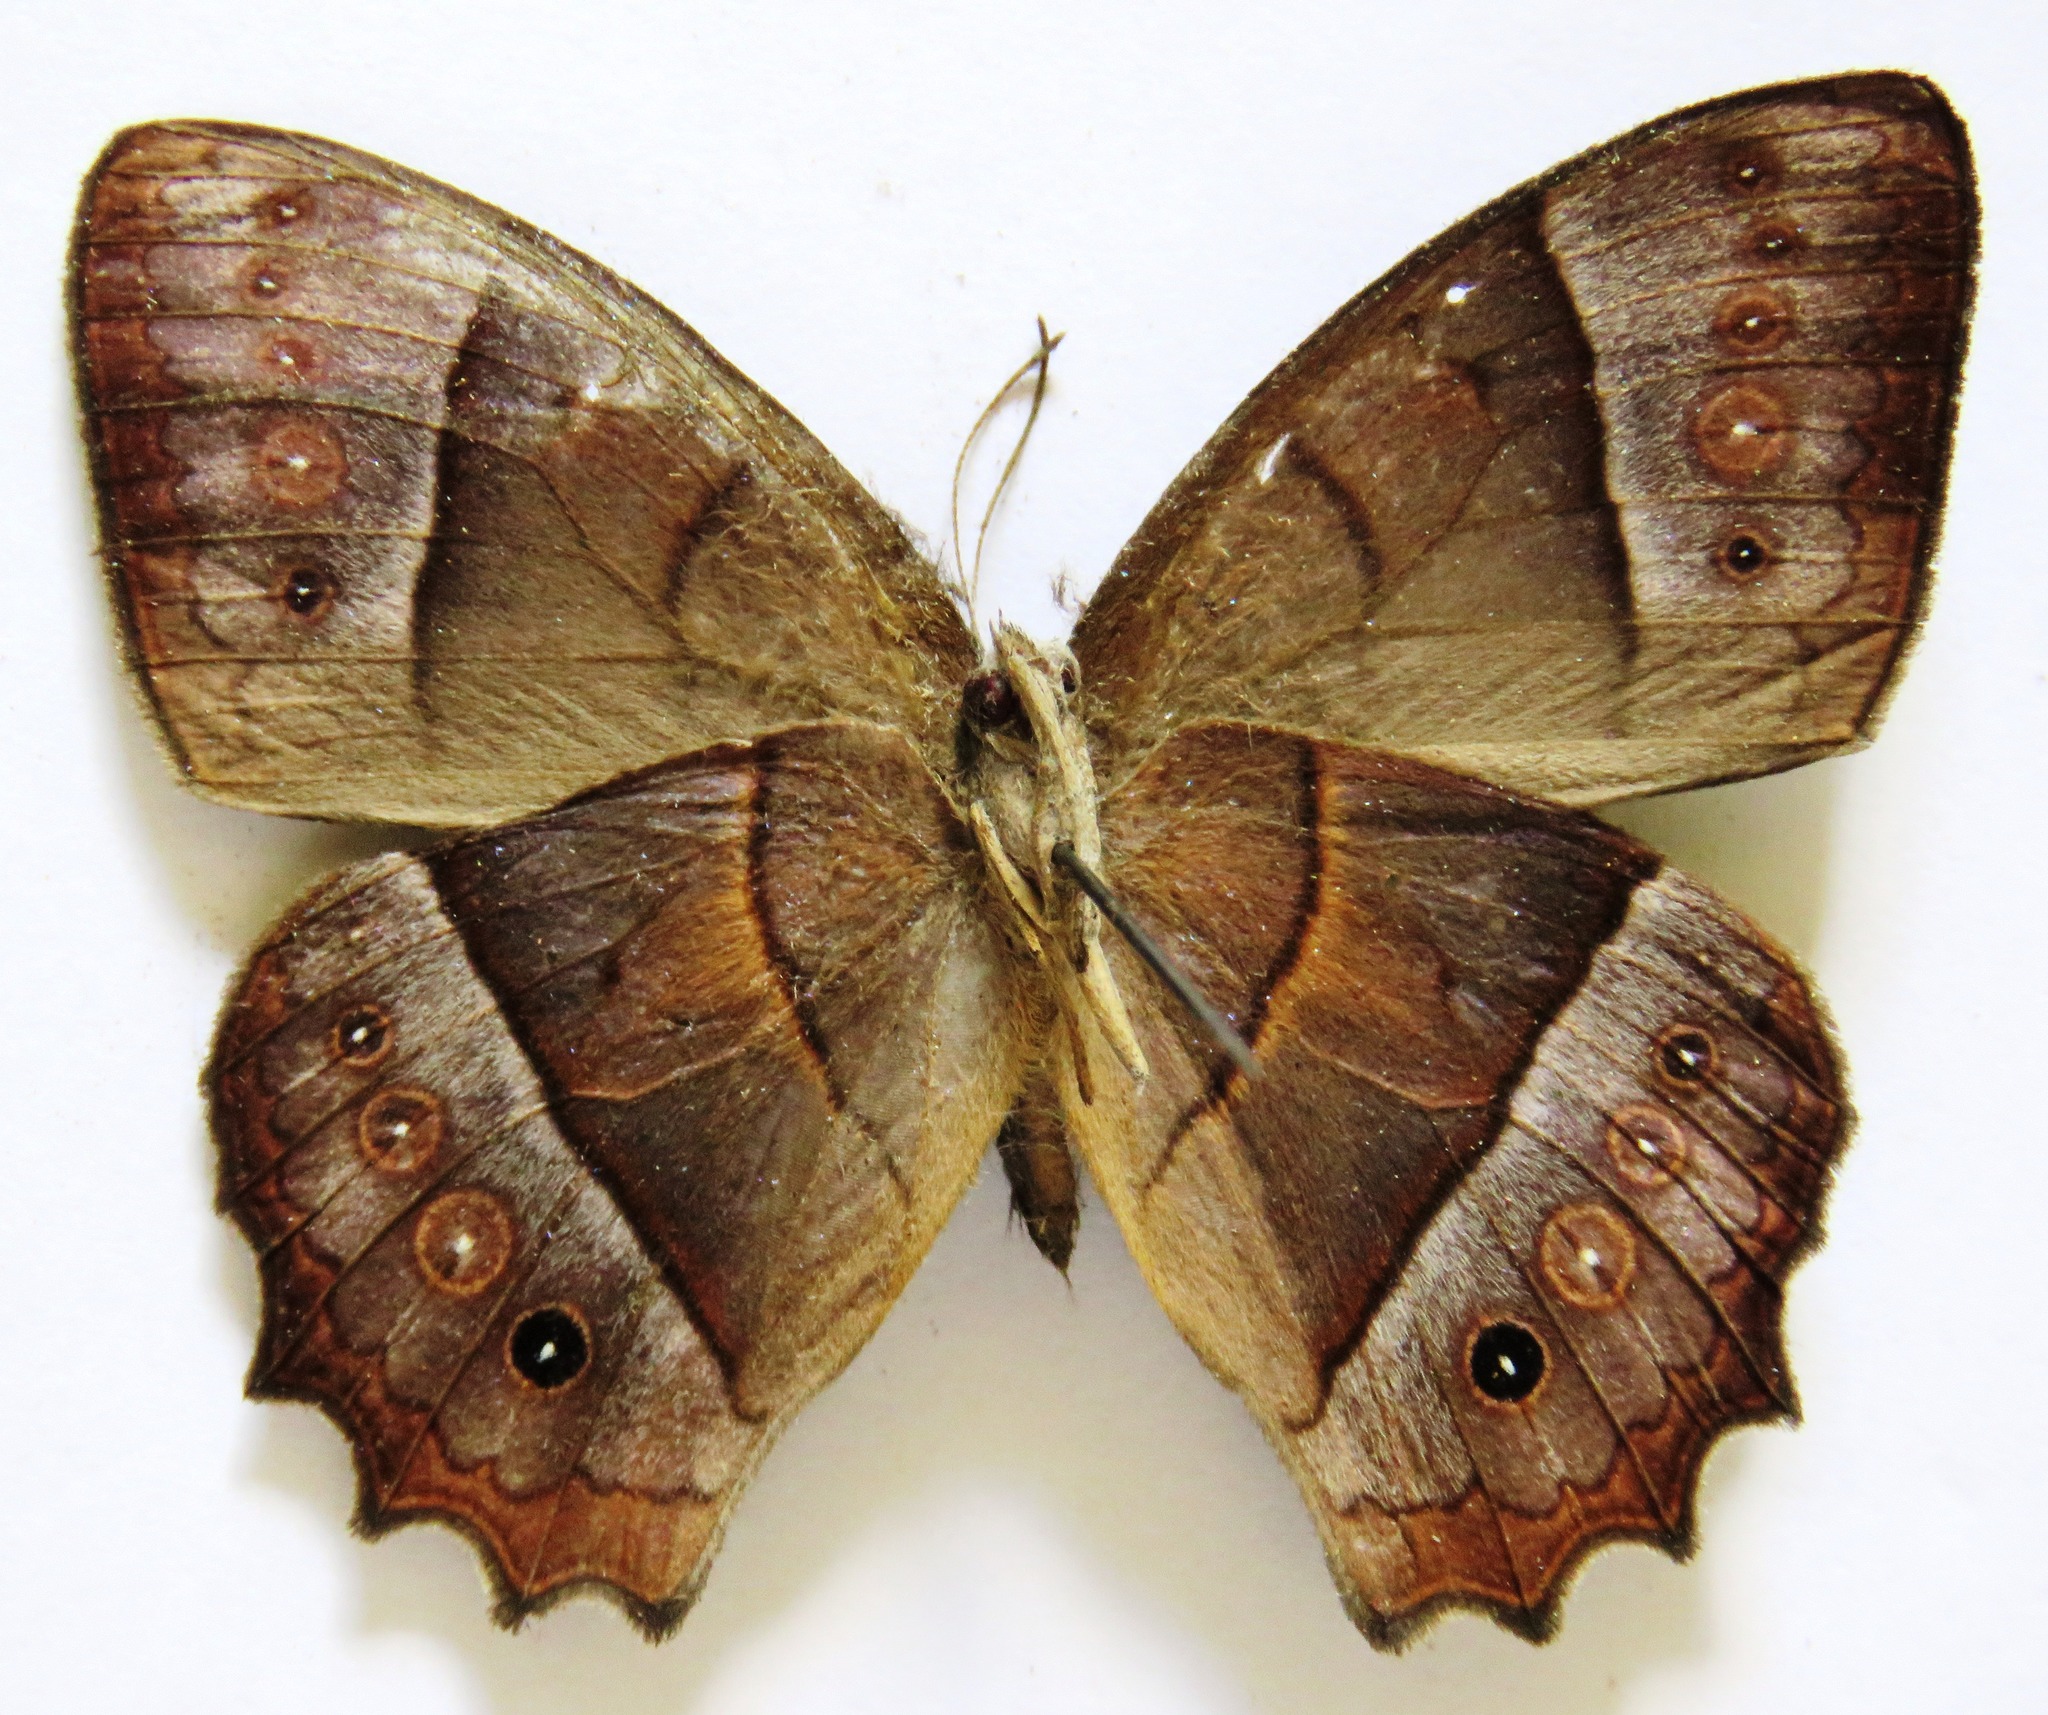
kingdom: Animalia
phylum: Arthropoda
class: Insecta
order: Lepidoptera
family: Nymphalidae
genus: Taygetis
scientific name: Taygetis salvini
